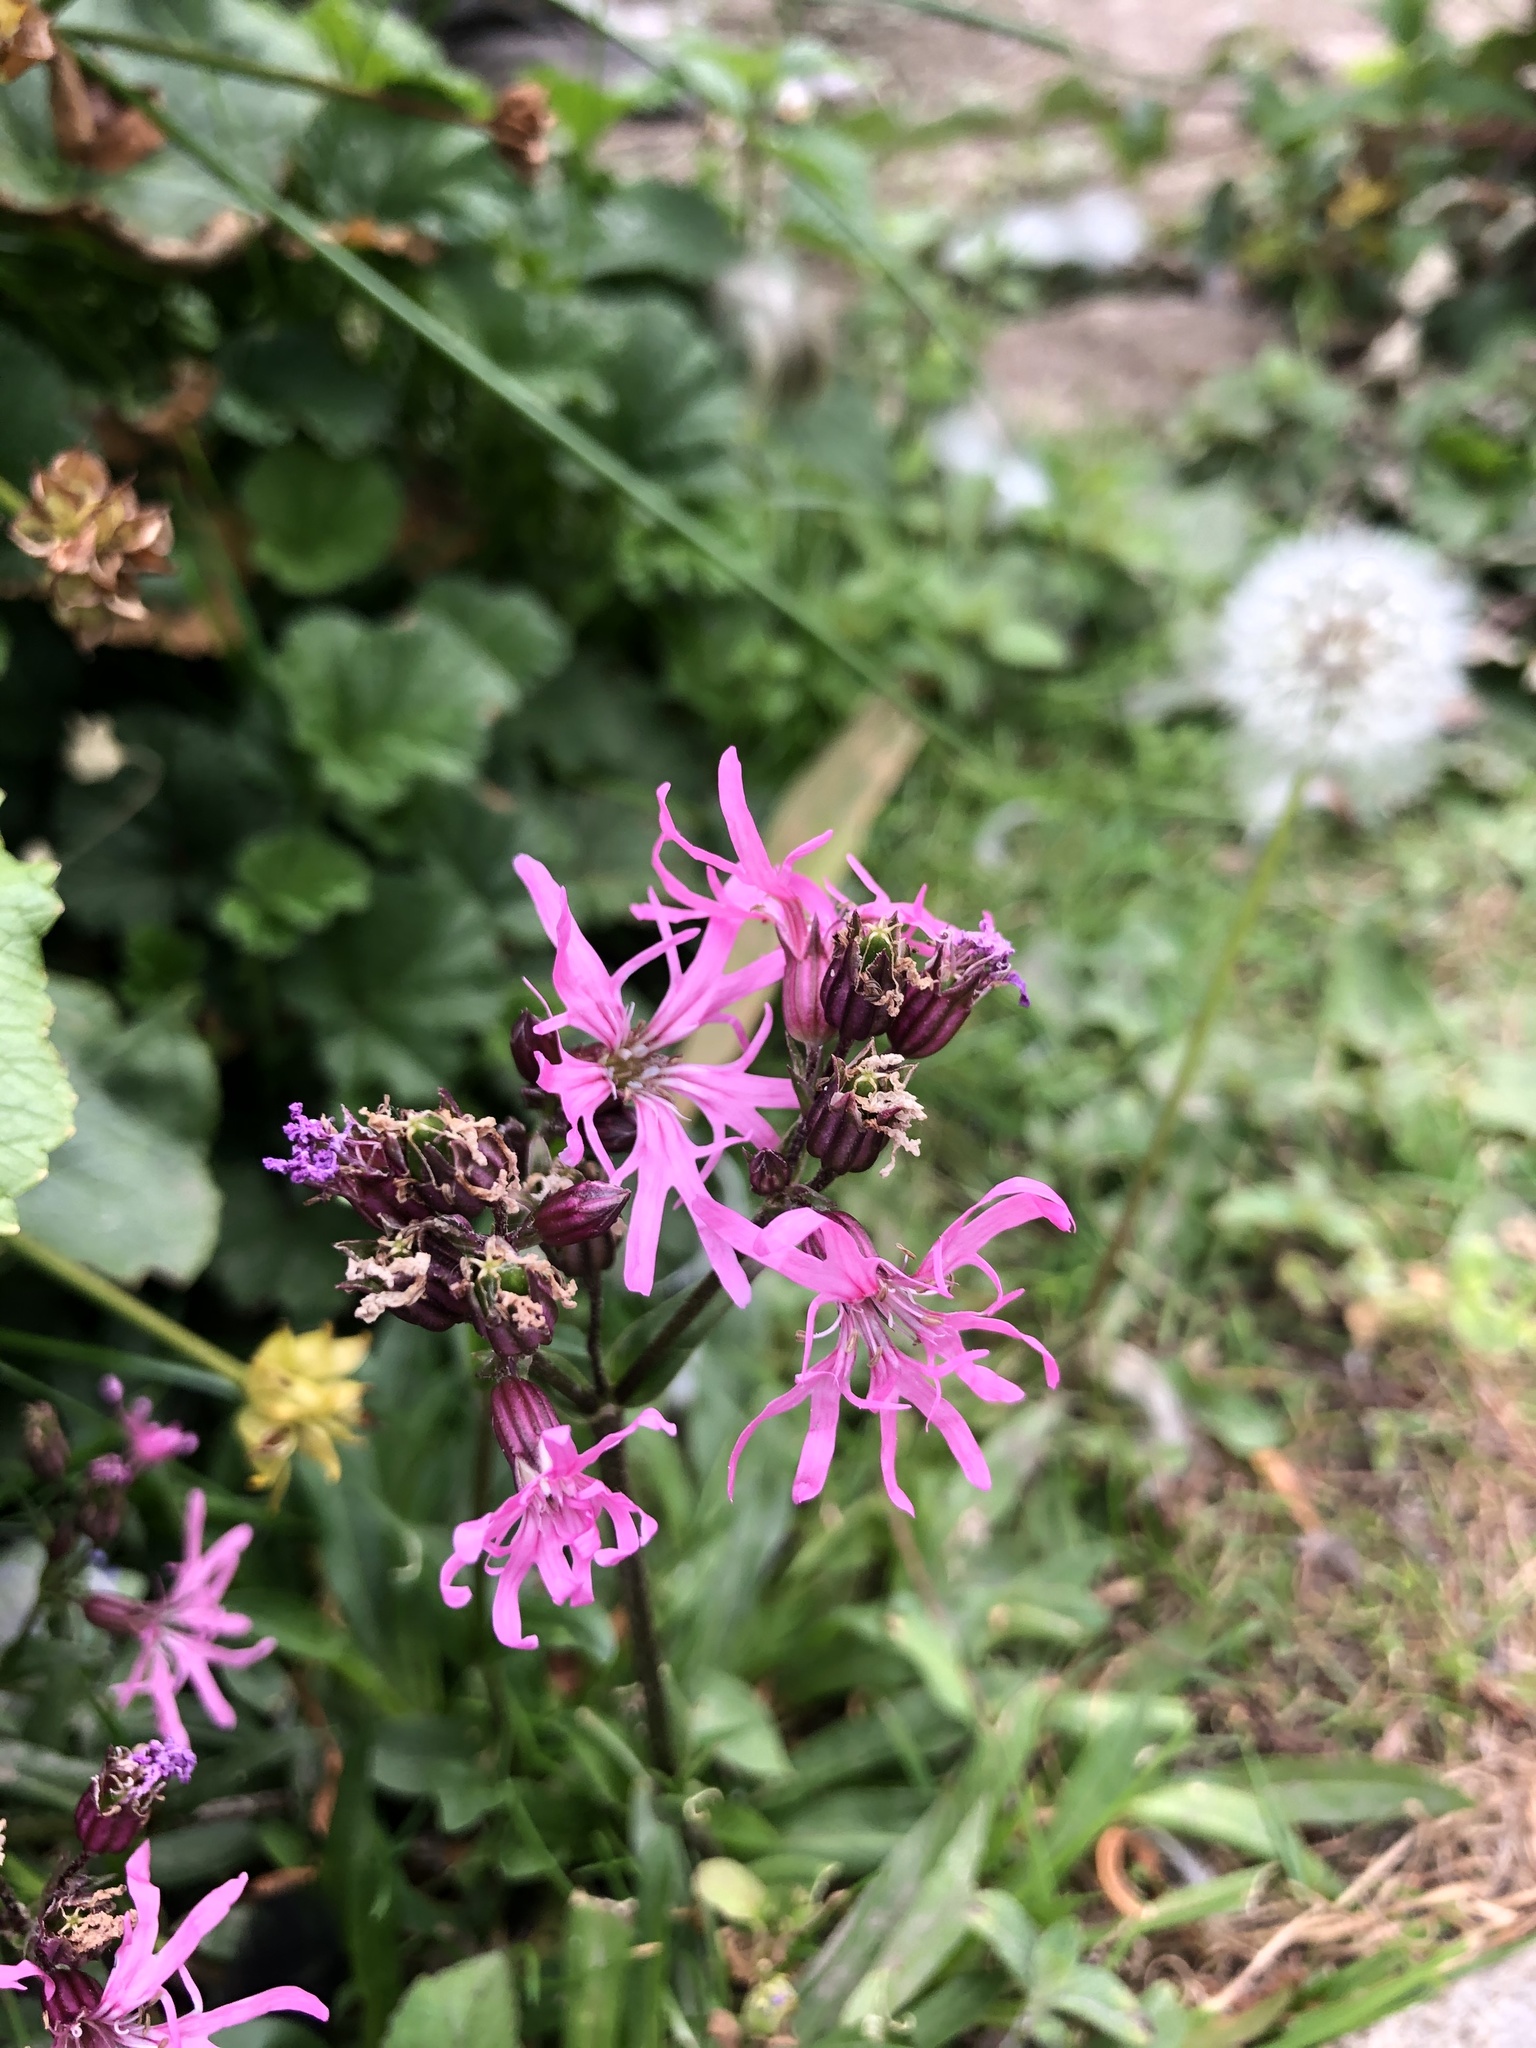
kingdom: Plantae
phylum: Tracheophyta
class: Magnoliopsida
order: Caryophyllales
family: Caryophyllaceae
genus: Silene
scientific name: Silene flos-cuculi
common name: Ragged-robin
